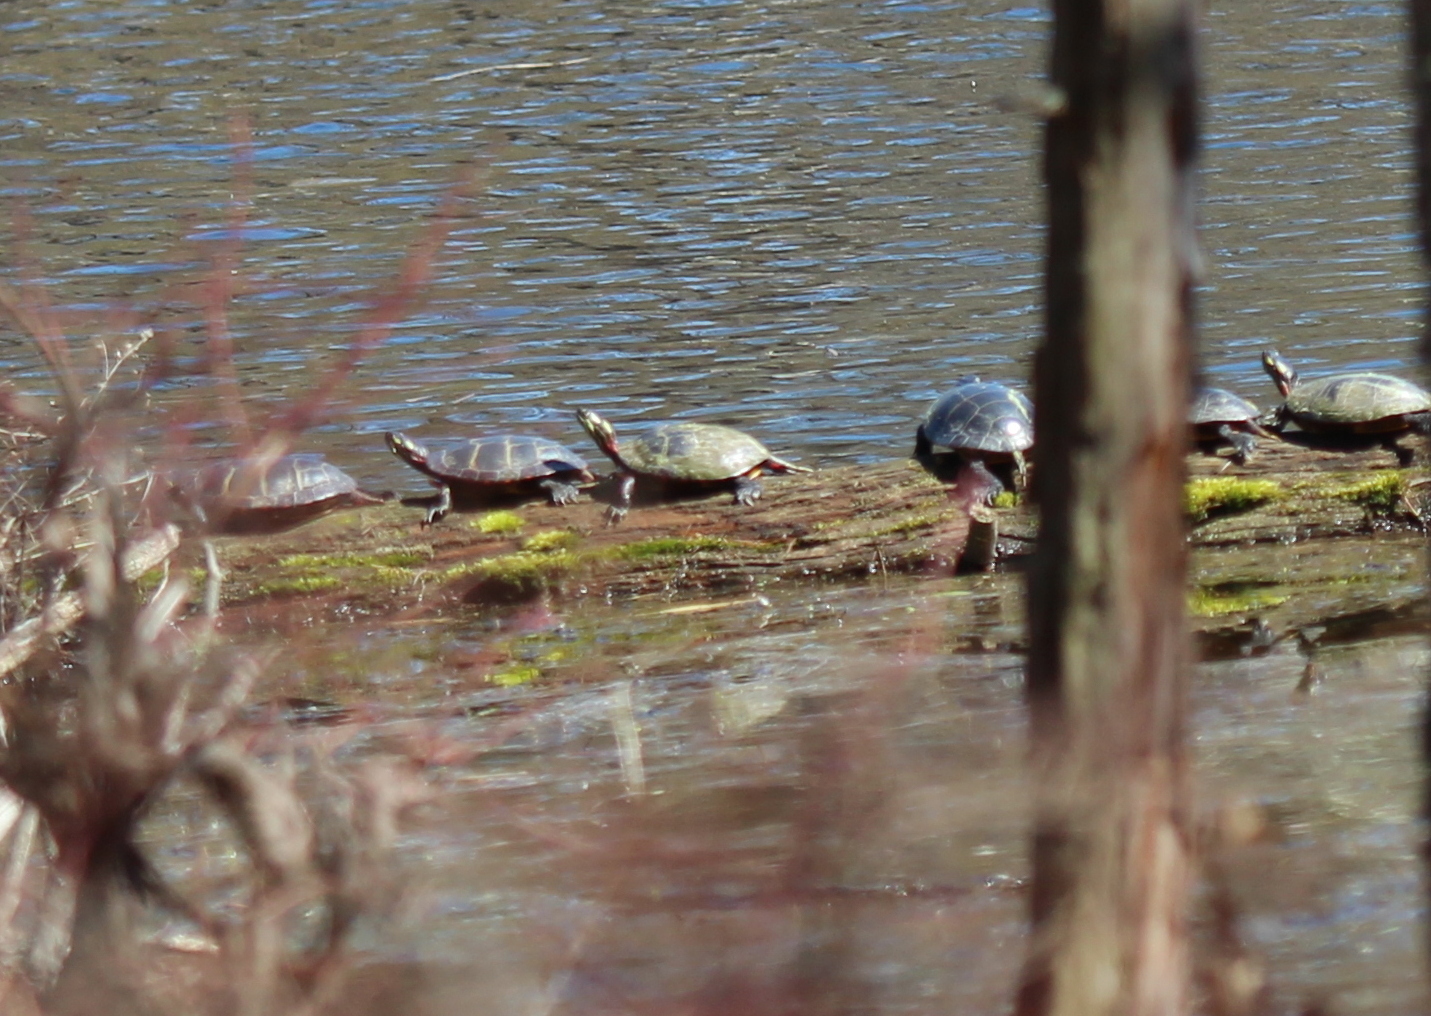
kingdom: Animalia
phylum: Chordata
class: Testudines
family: Emydidae
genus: Chrysemys
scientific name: Chrysemys picta
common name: Painted turtle
